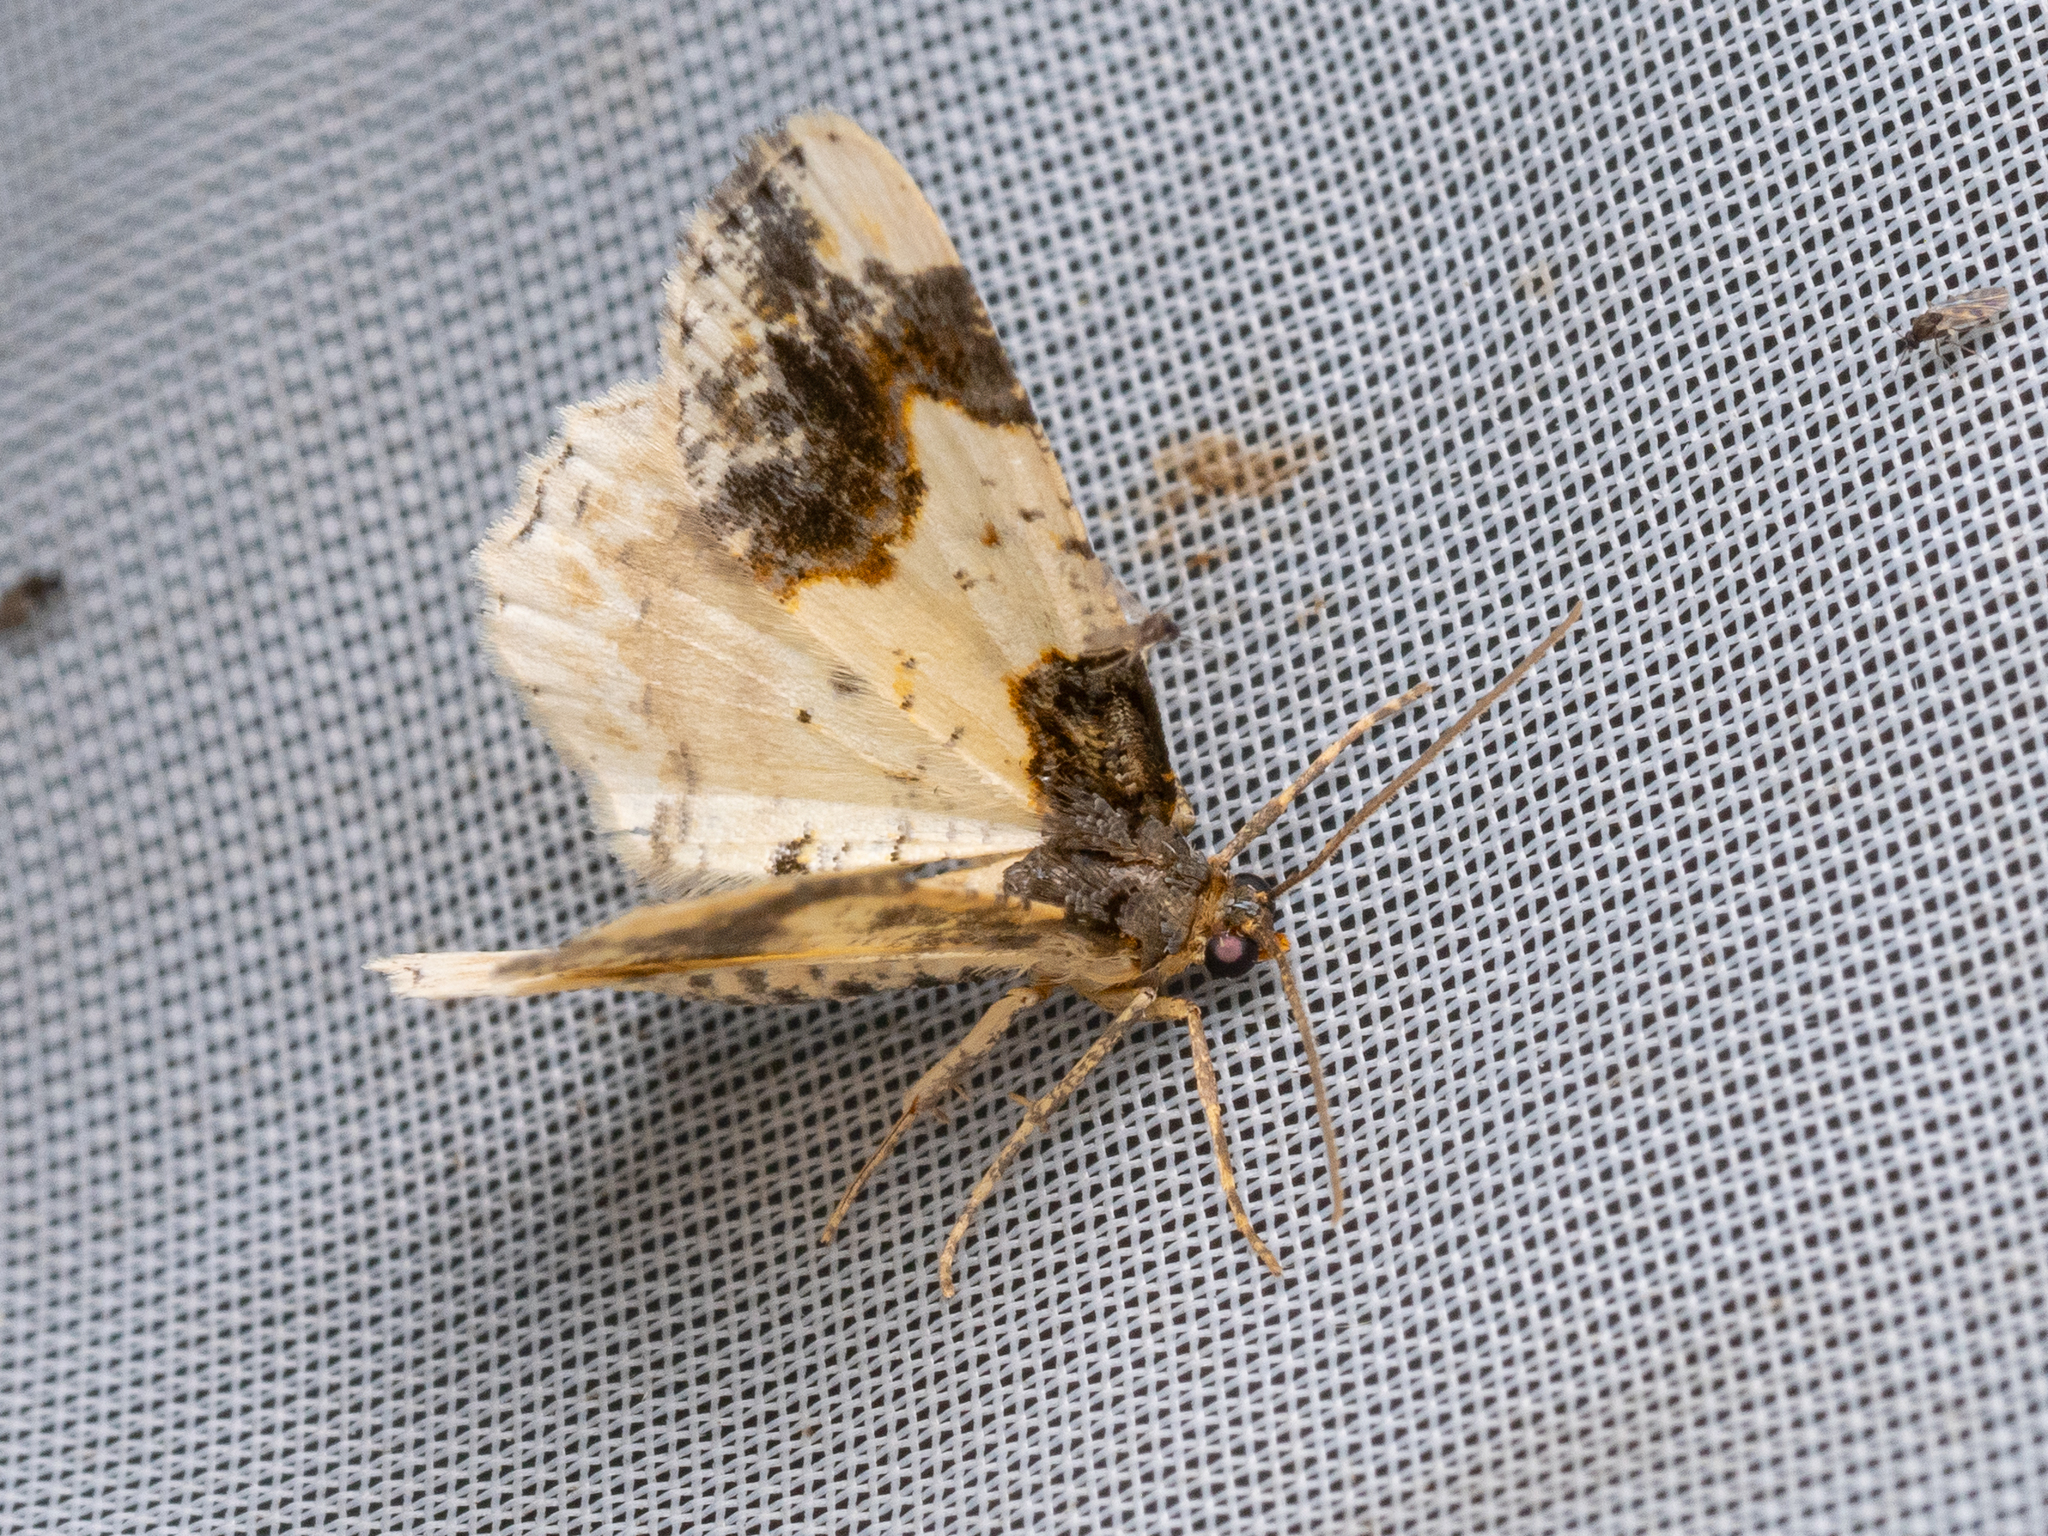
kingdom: Animalia
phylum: Arthropoda
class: Insecta
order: Lepidoptera
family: Geometridae
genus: Ligdia
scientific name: Ligdia adustata
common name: Scorched carpet
